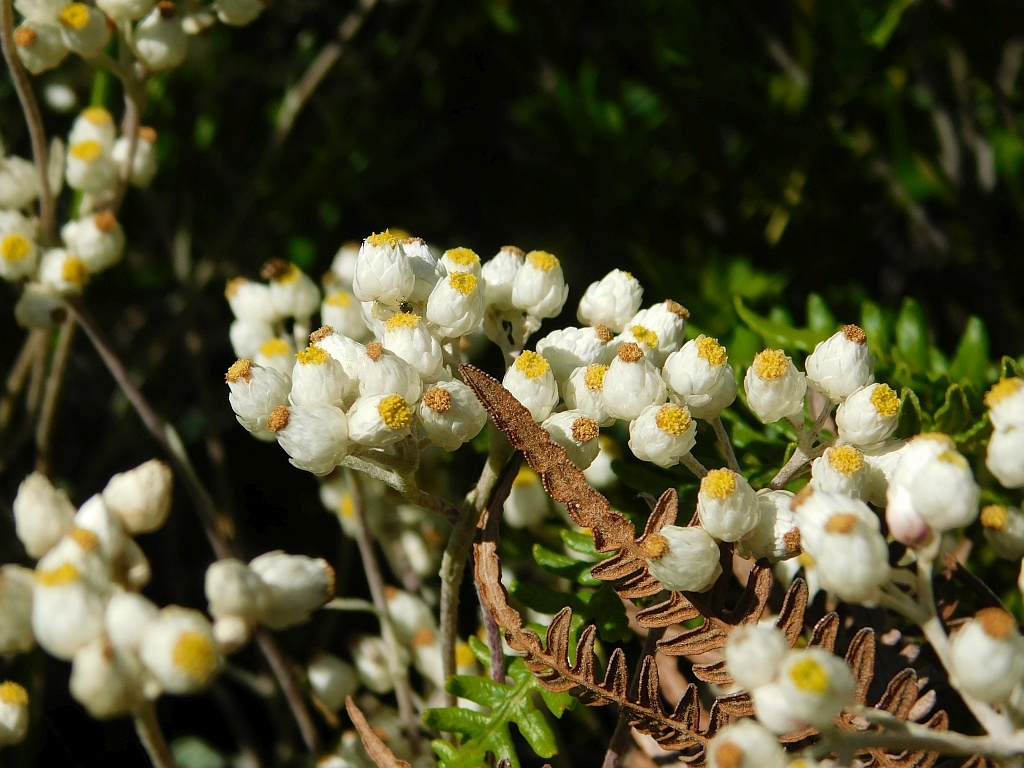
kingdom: Plantae
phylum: Tracheophyta
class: Magnoliopsida
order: Asterales
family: Asteraceae
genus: Helichrysum
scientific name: Helichrysum pandurifolium
